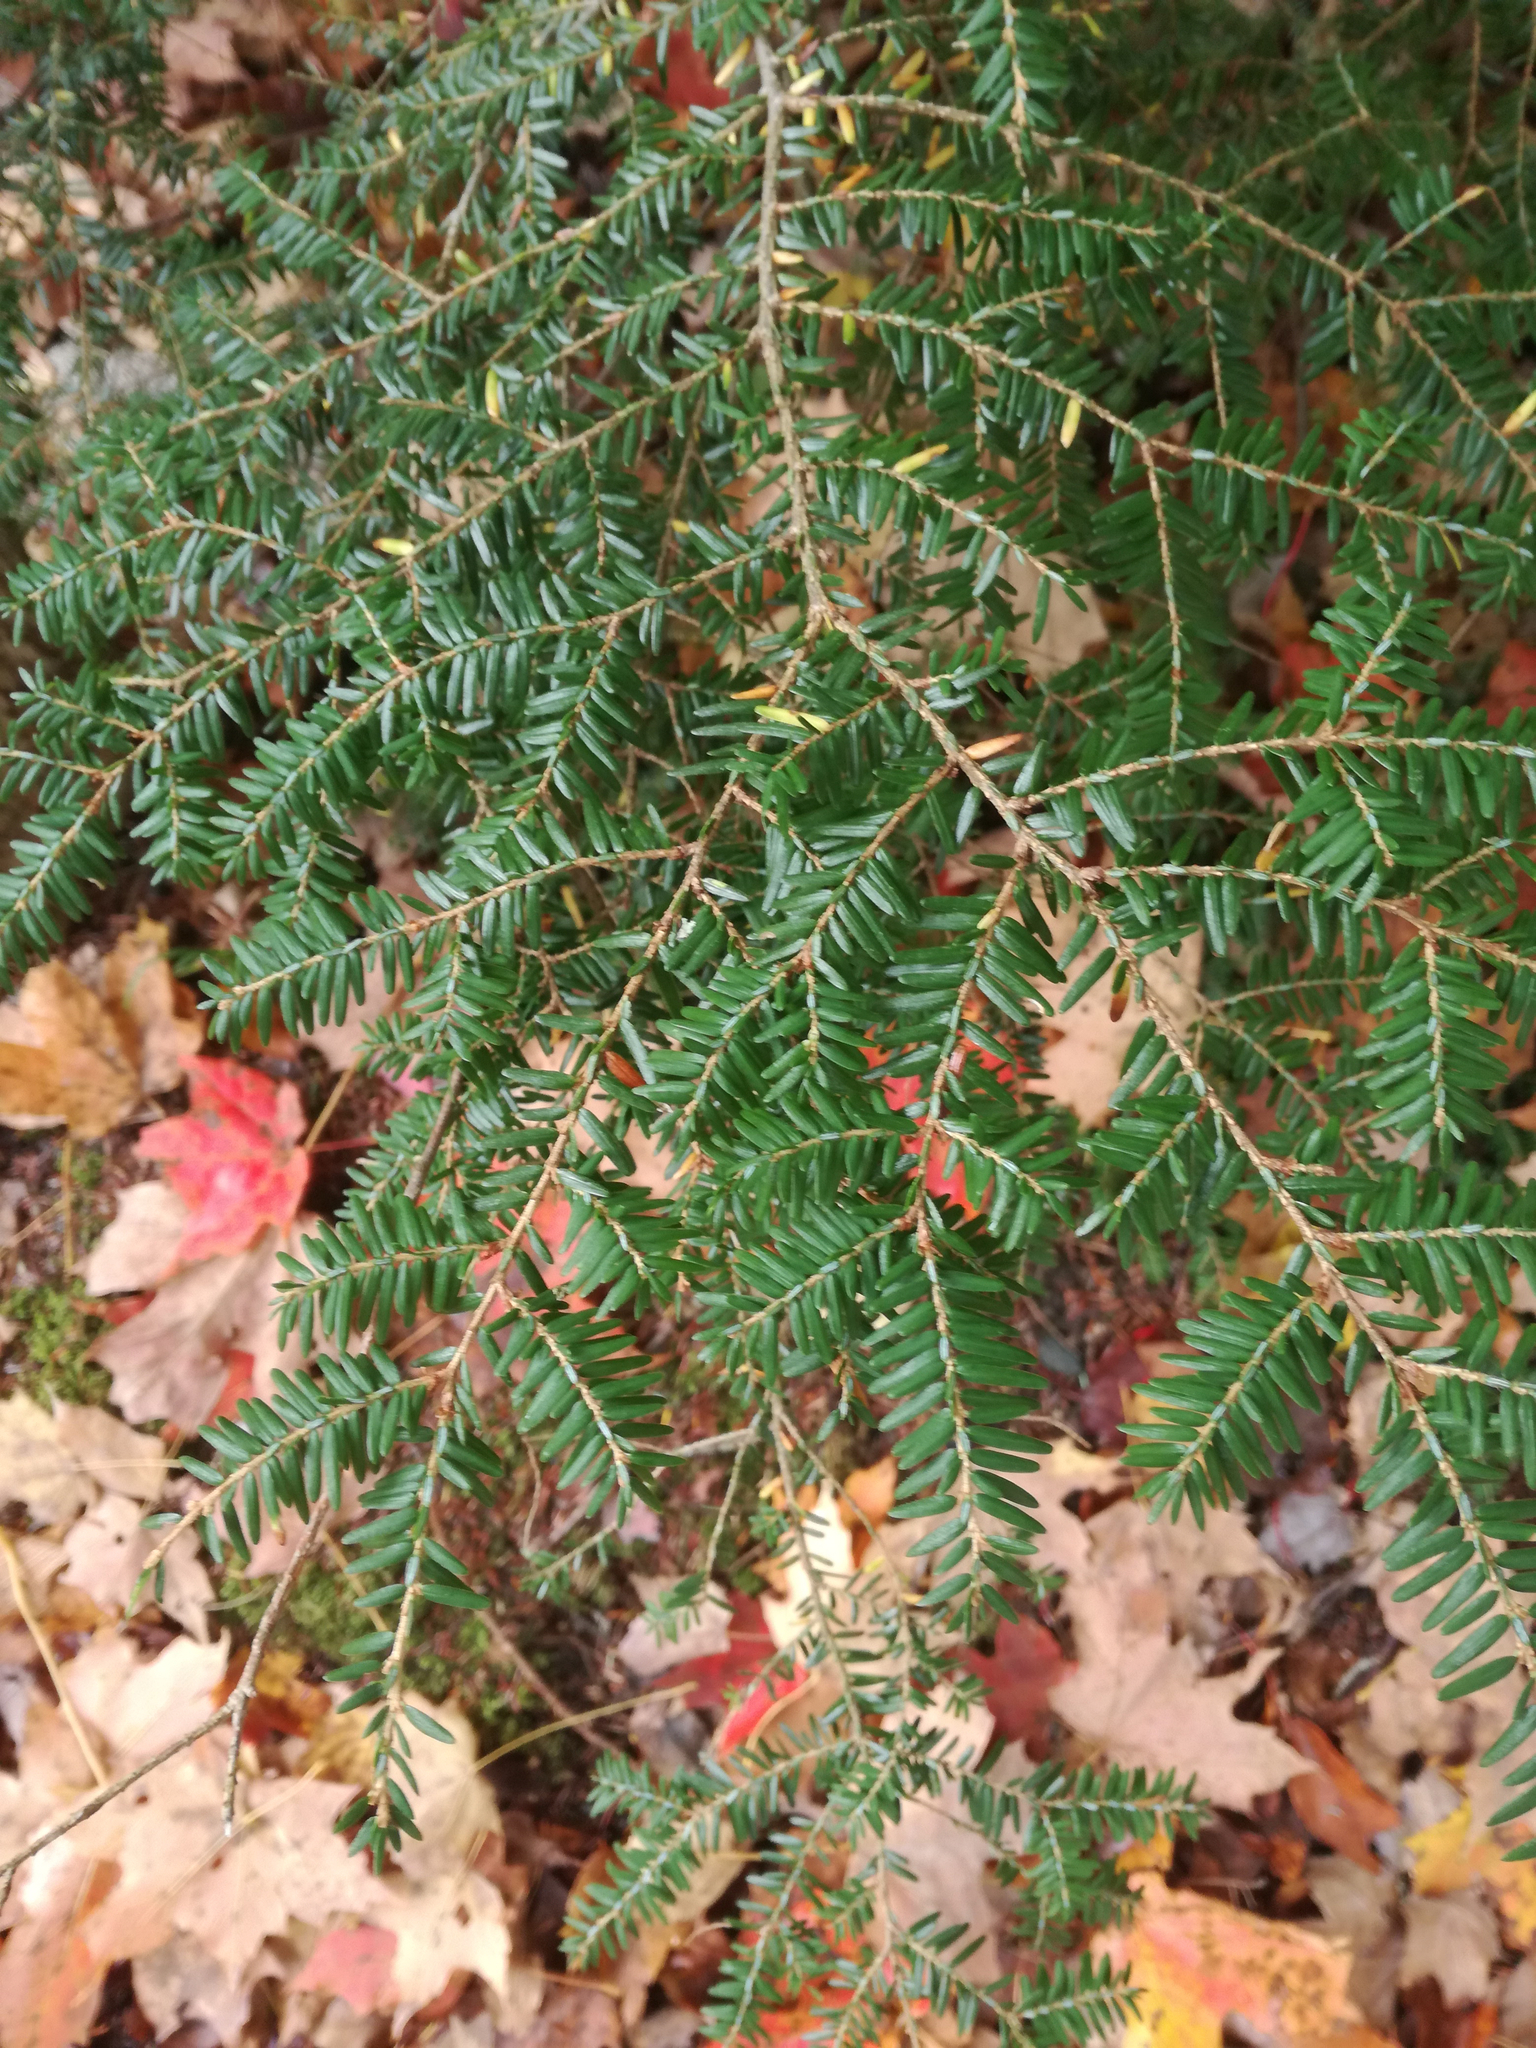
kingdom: Plantae
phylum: Tracheophyta
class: Pinopsida
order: Pinales
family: Pinaceae
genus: Tsuga
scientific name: Tsuga canadensis
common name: Eastern hemlock
